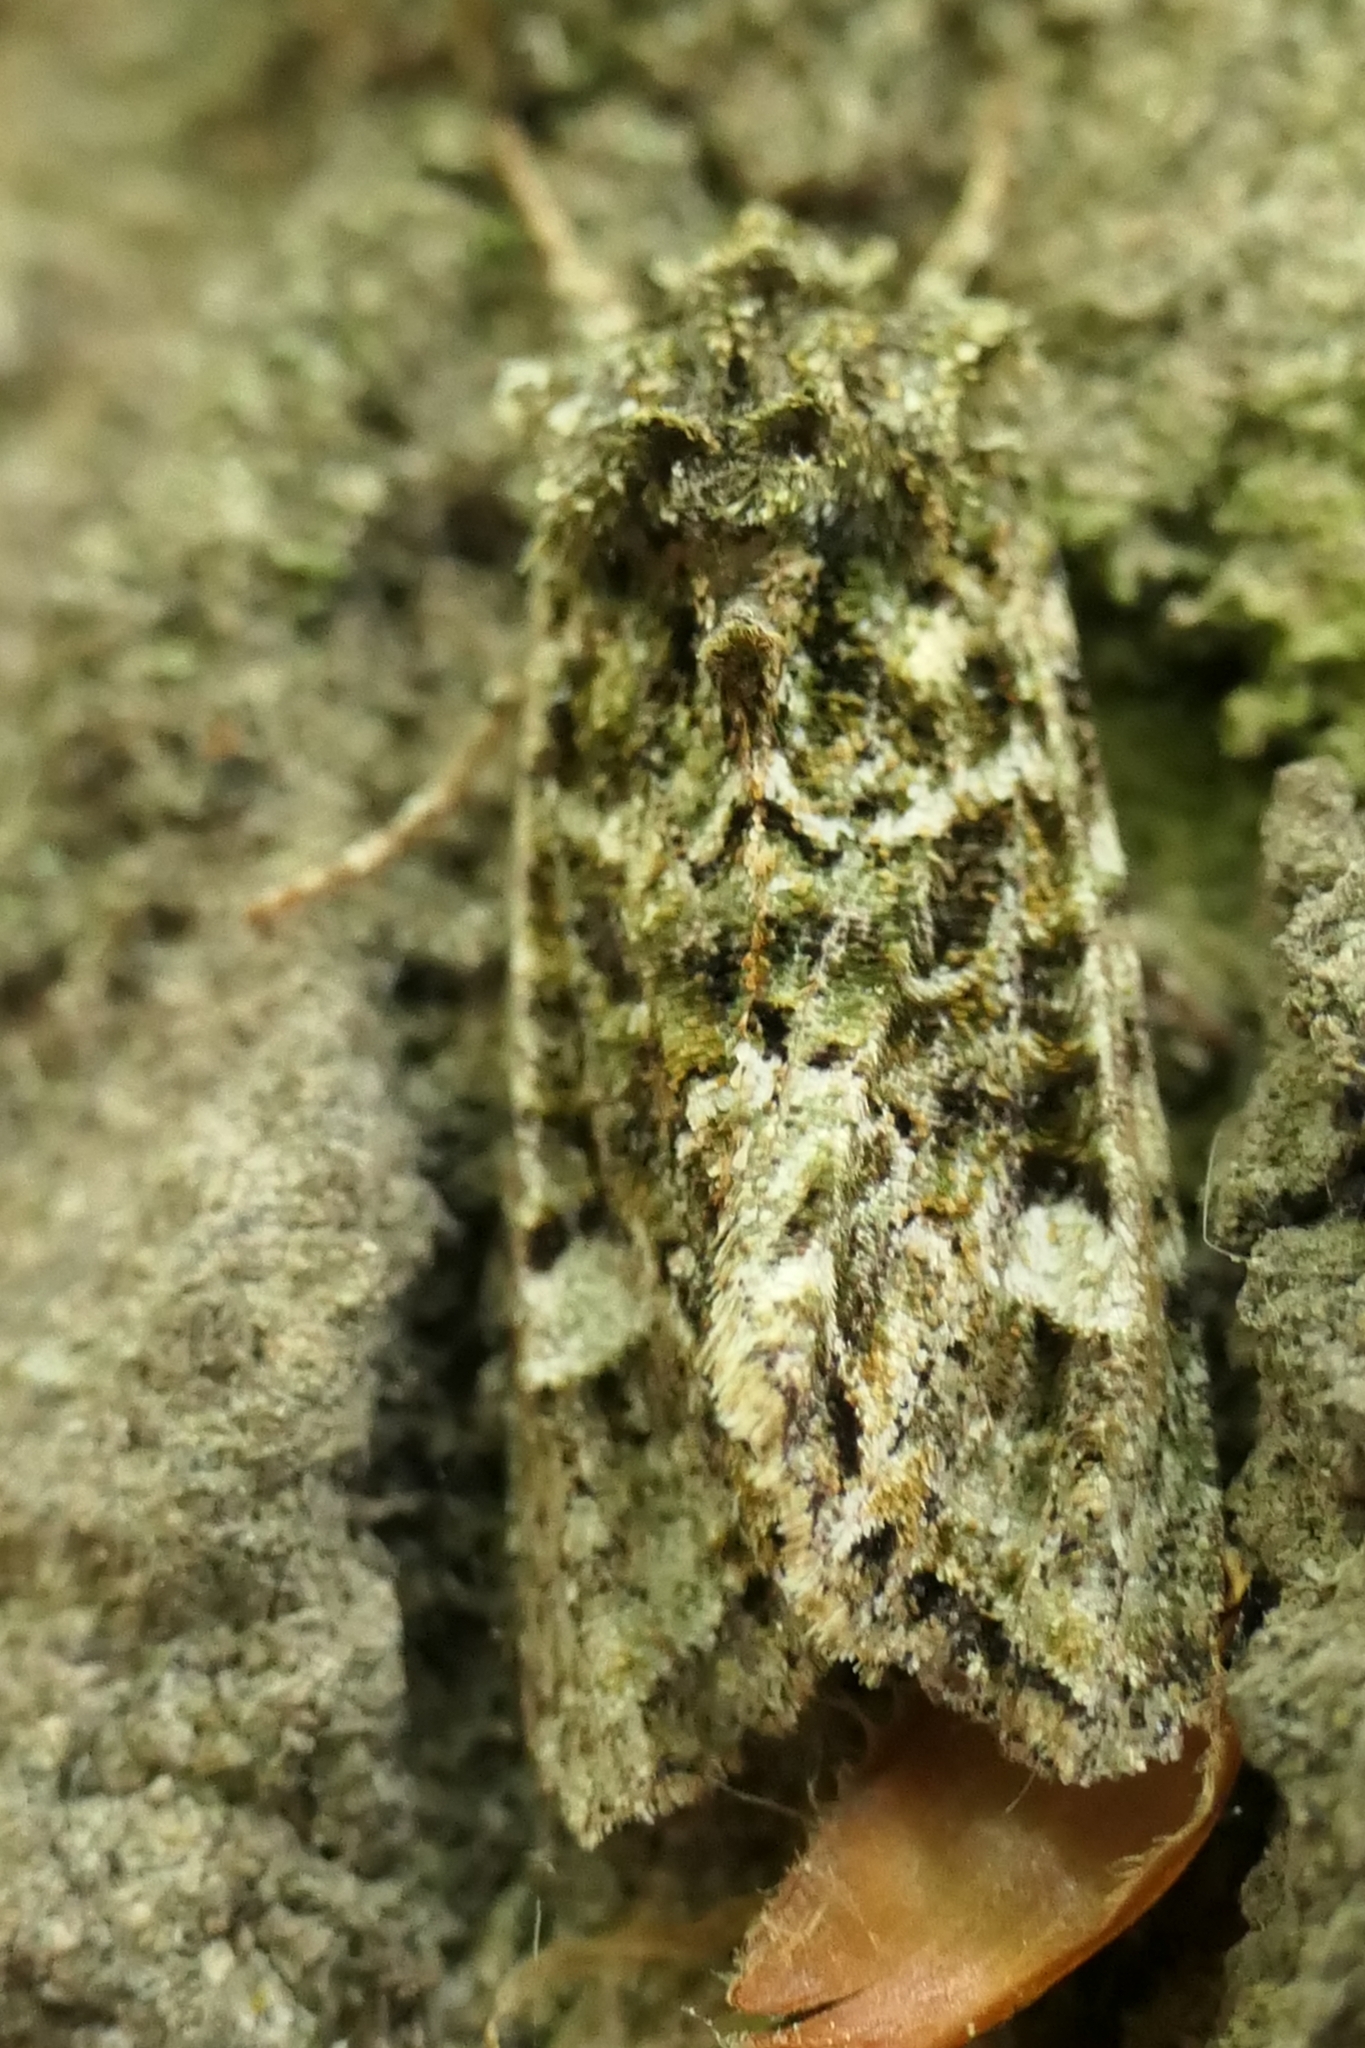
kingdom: Animalia
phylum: Arthropoda
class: Insecta
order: Lepidoptera
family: Noctuidae
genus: Ichneutica
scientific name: Ichneutica
